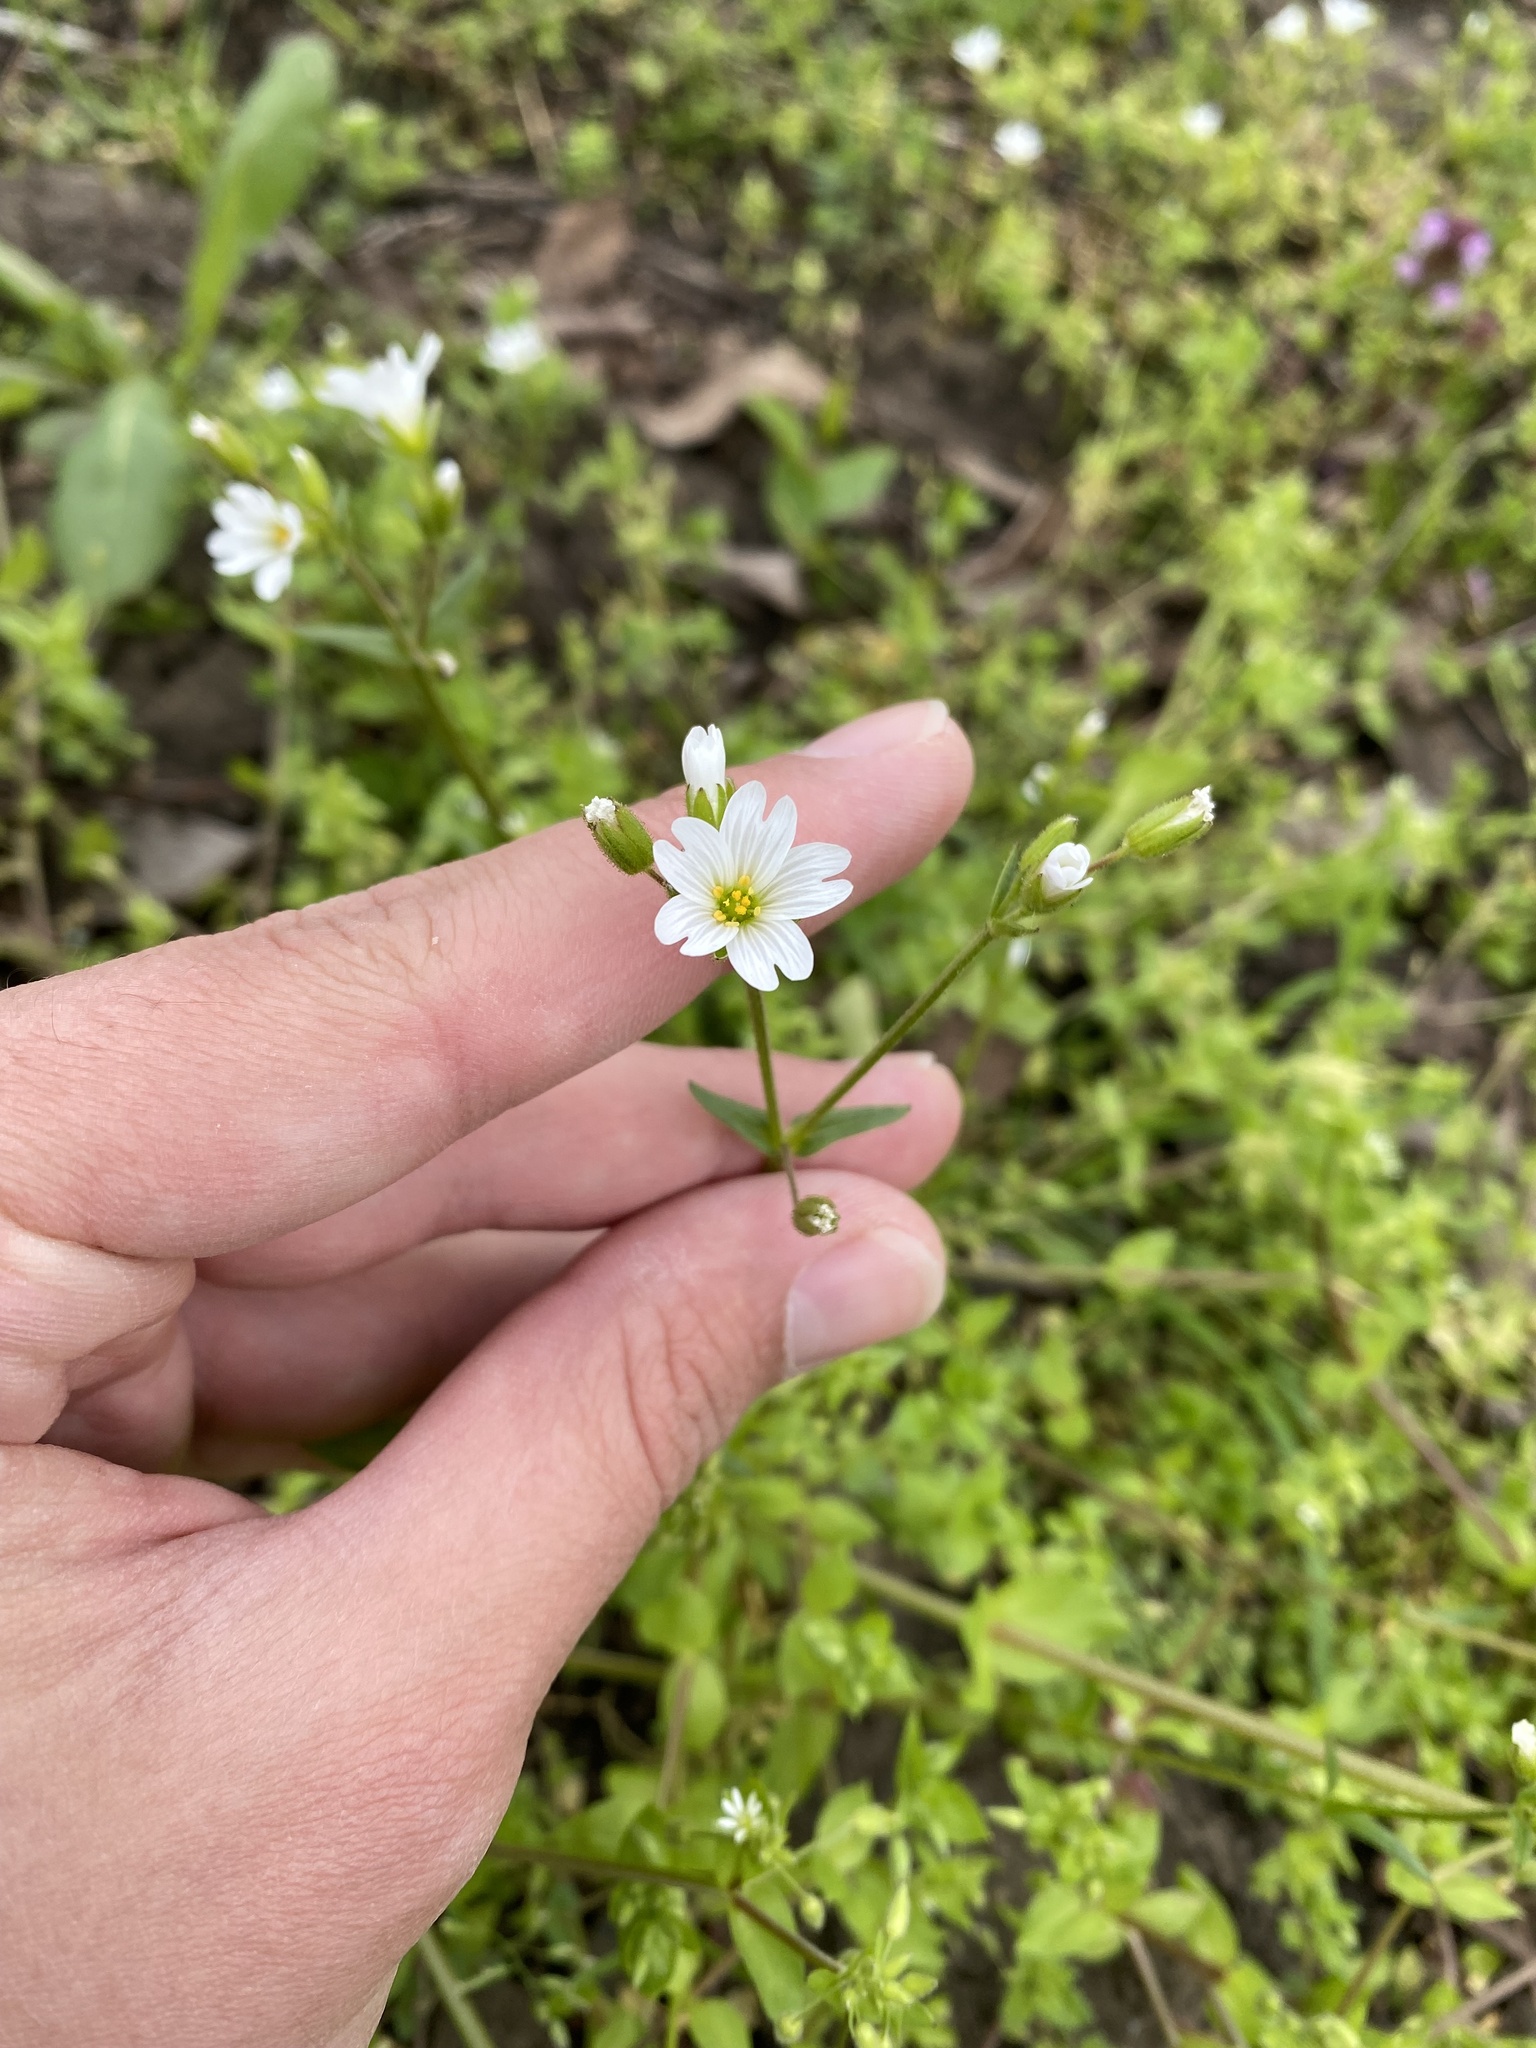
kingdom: Plantae
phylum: Tracheophyta
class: Magnoliopsida
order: Caryophyllales
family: Caryophyllaceae
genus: Dichodon
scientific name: Dichodon viscidum
